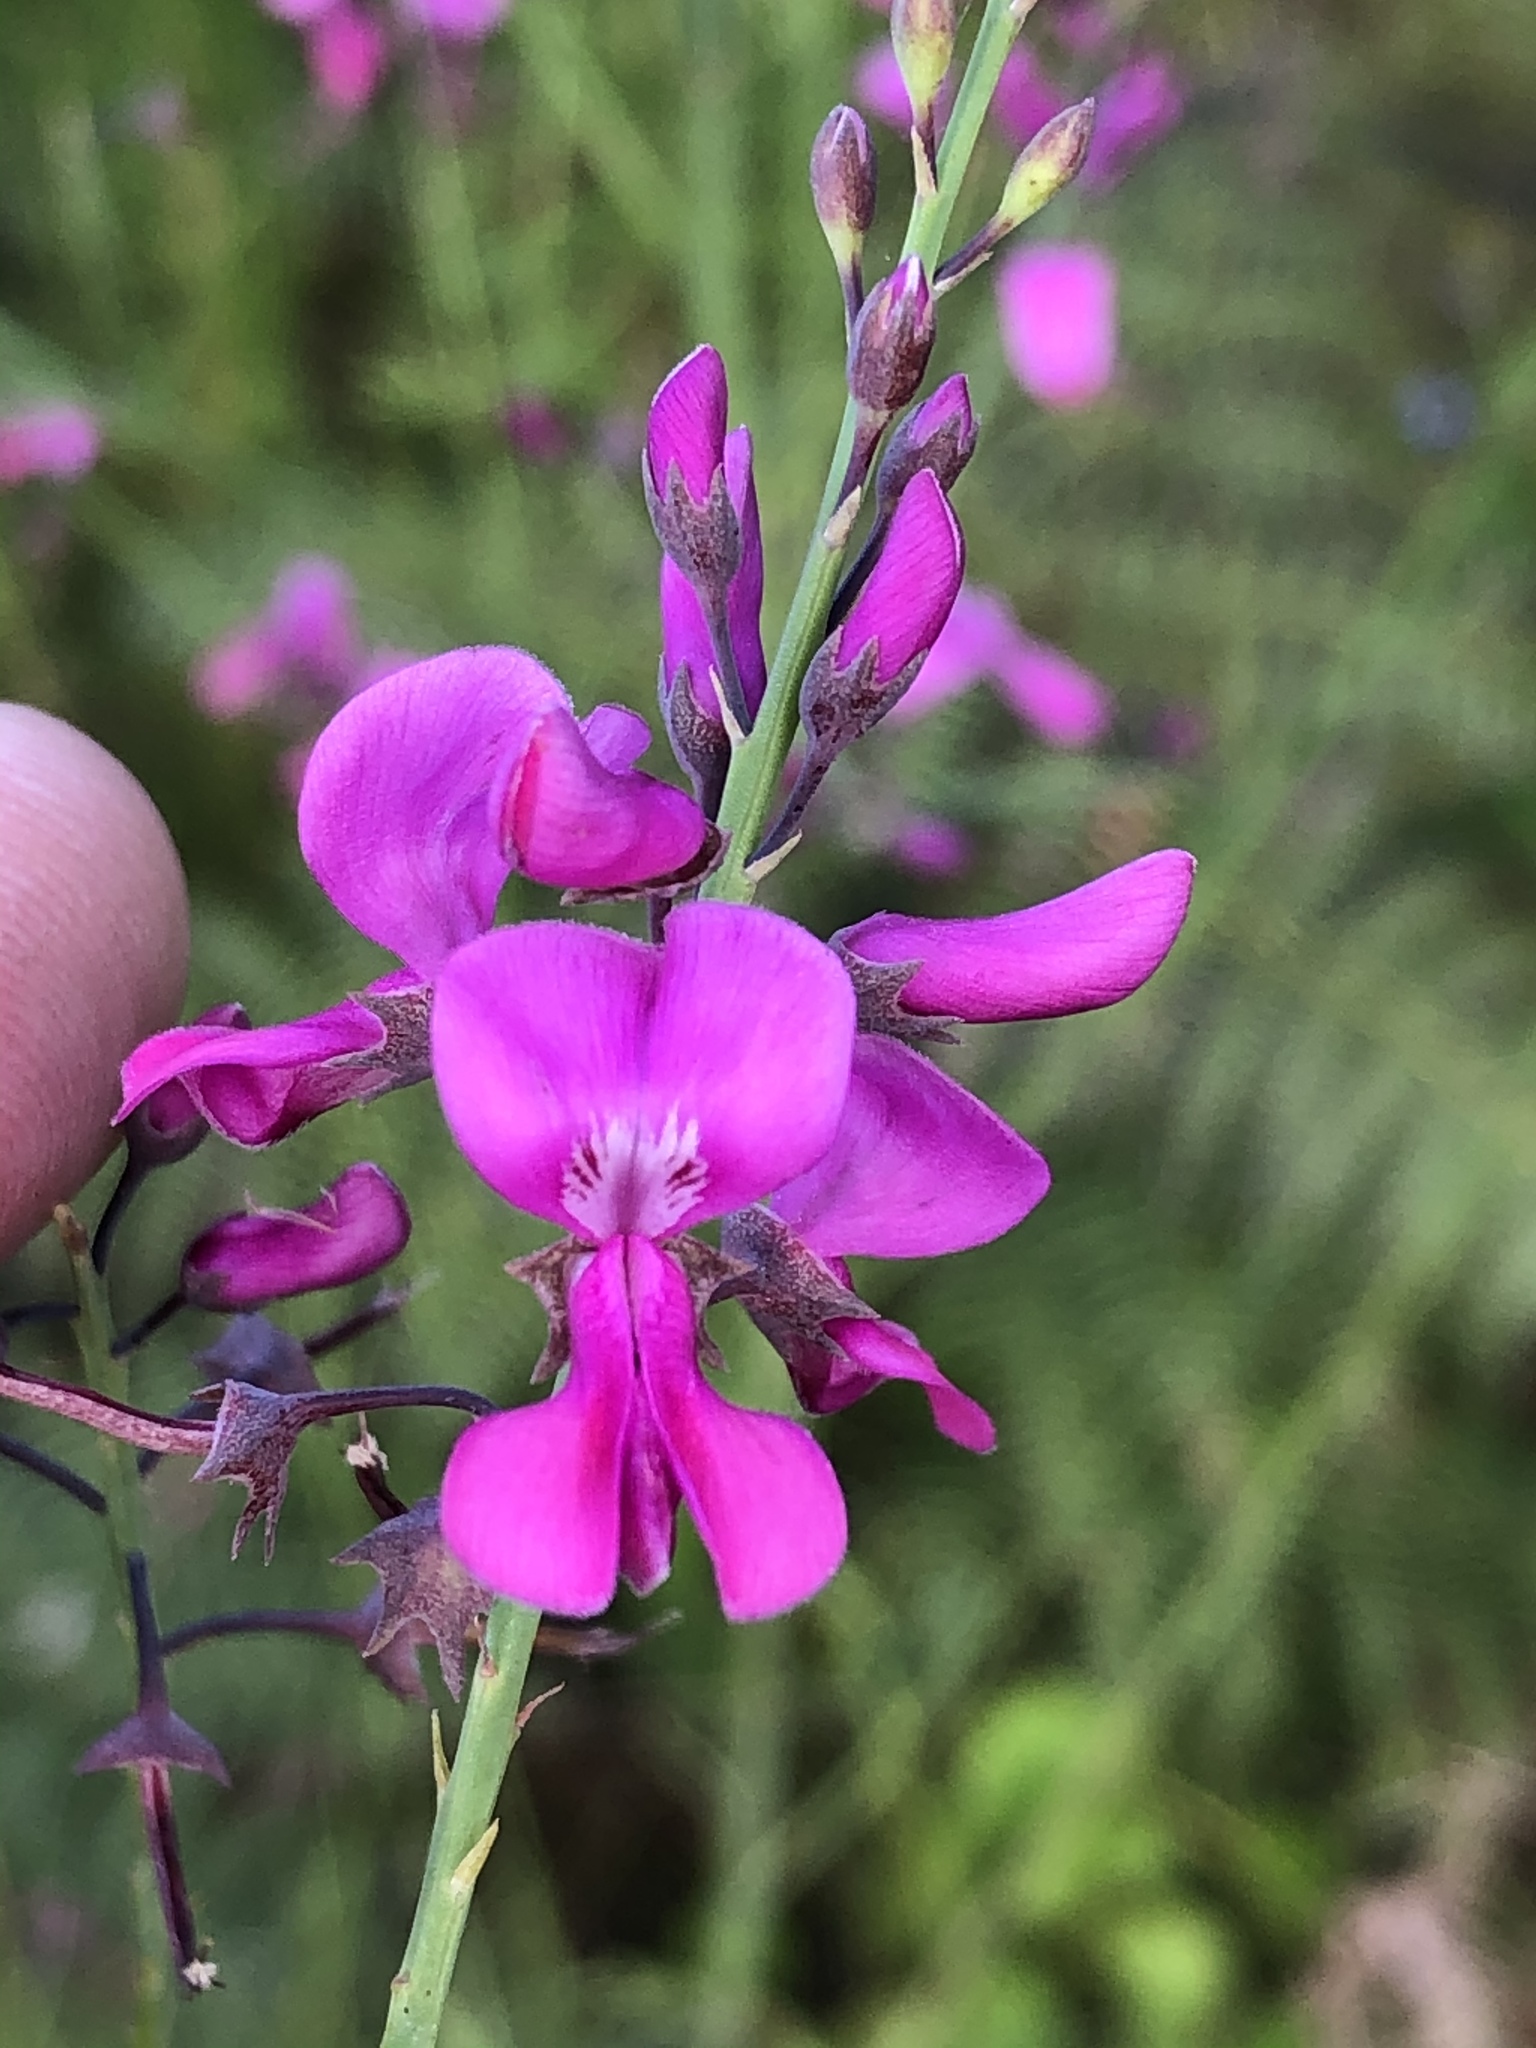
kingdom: Plantae
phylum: Tracheophyta
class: Magnoliopsida
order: Fabales
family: Fabaceae
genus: Indigofera
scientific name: Indigofera filifolia
